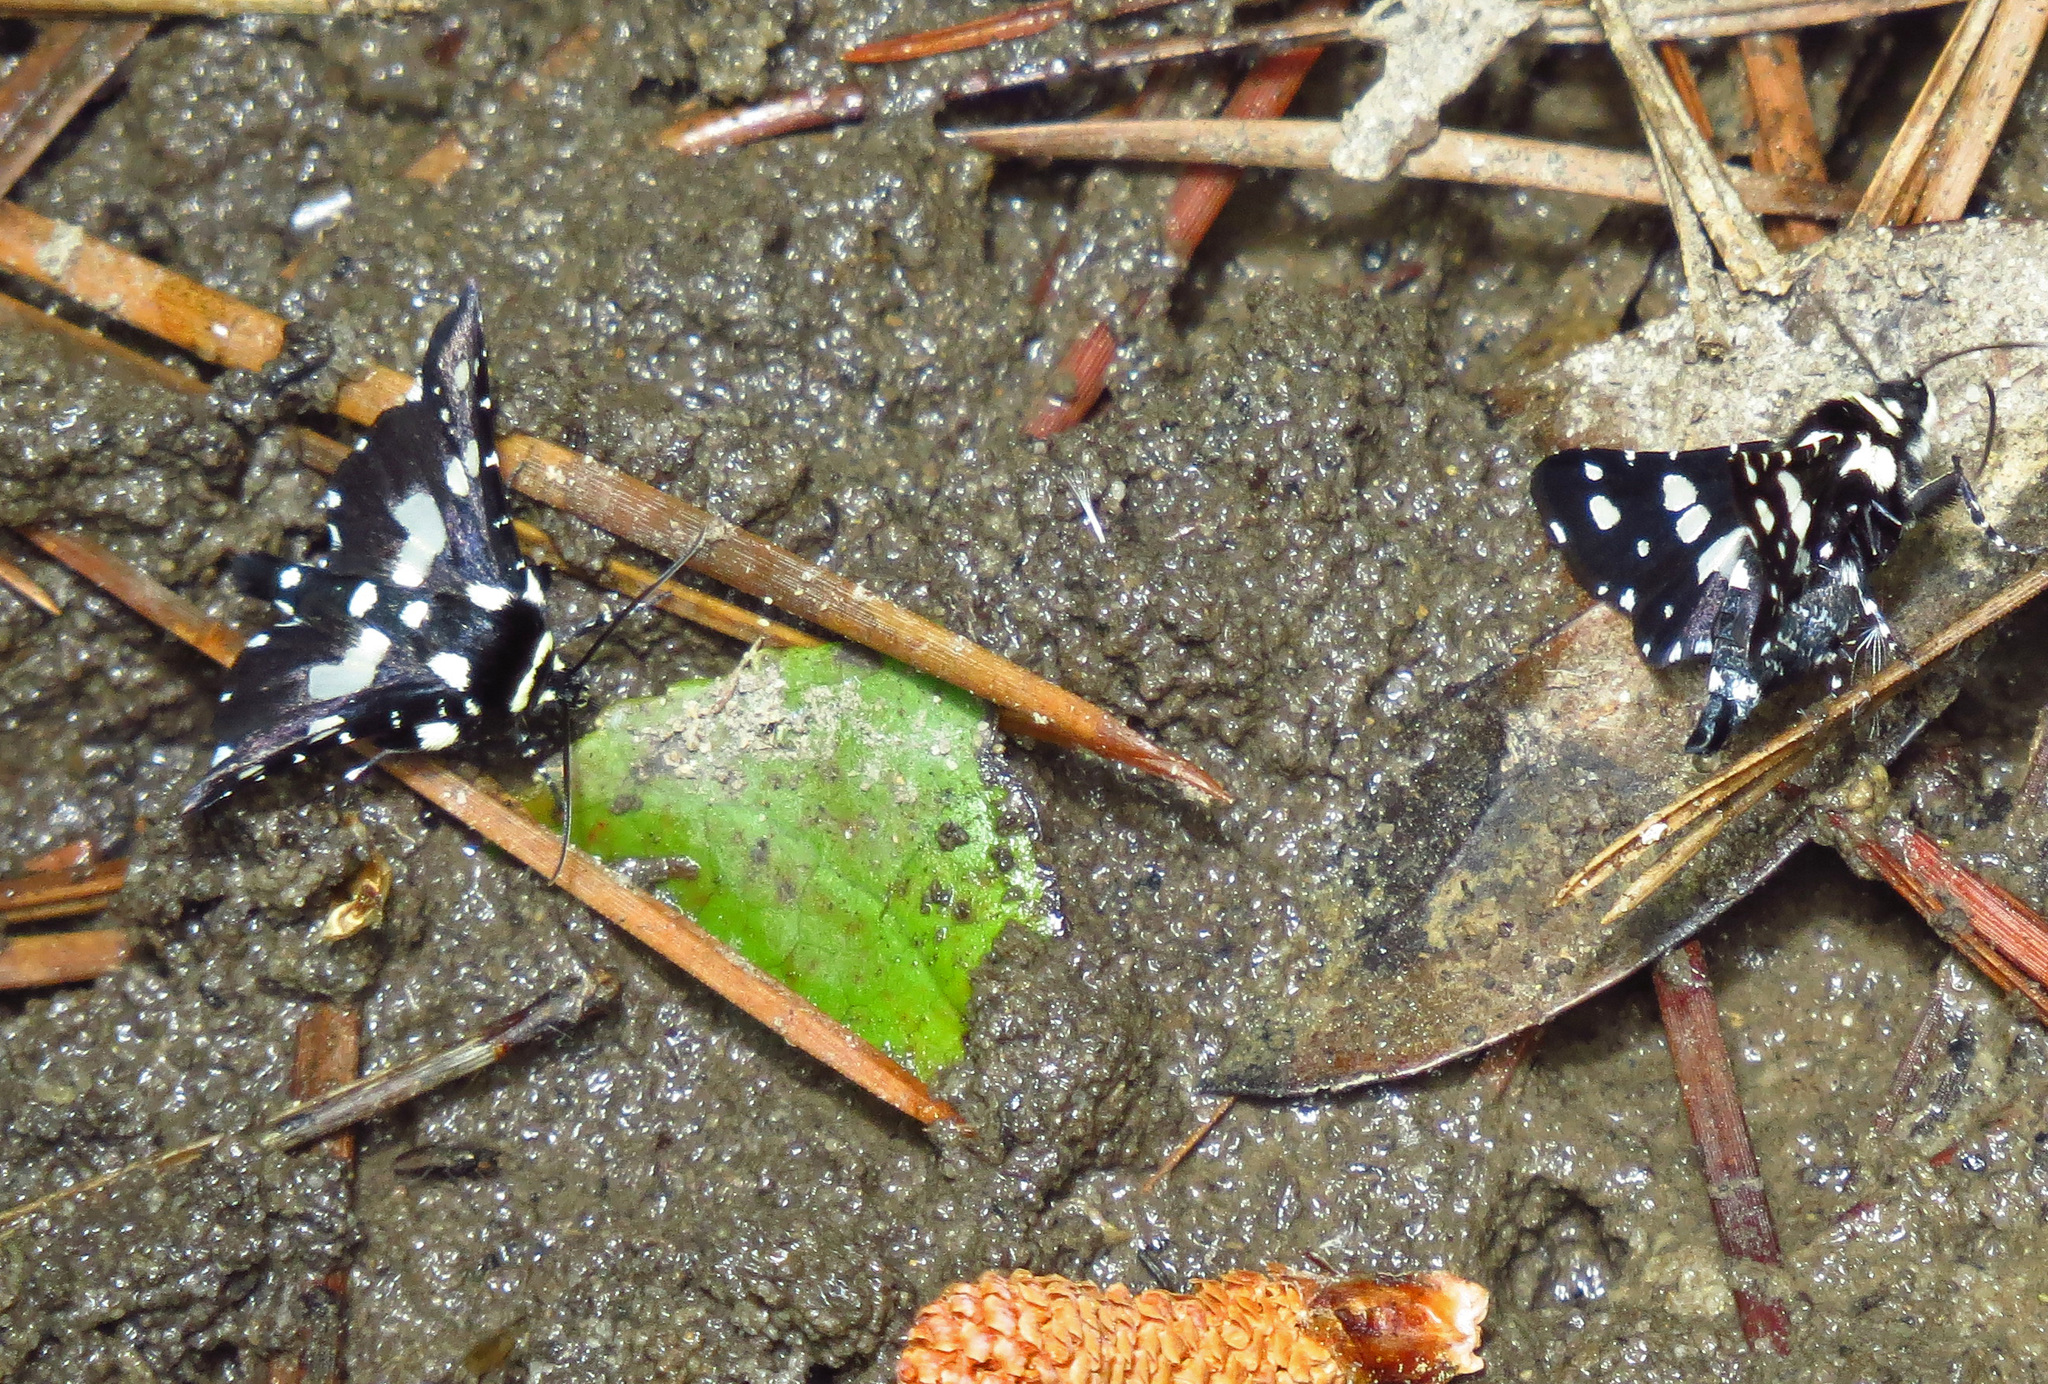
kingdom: Animalia
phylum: Arthropoda
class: Insecta
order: Lepidoptera
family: Thyrididae
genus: Pseudothyris
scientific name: Pseudothyris sepulchralis
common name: Mournful thyris moth
